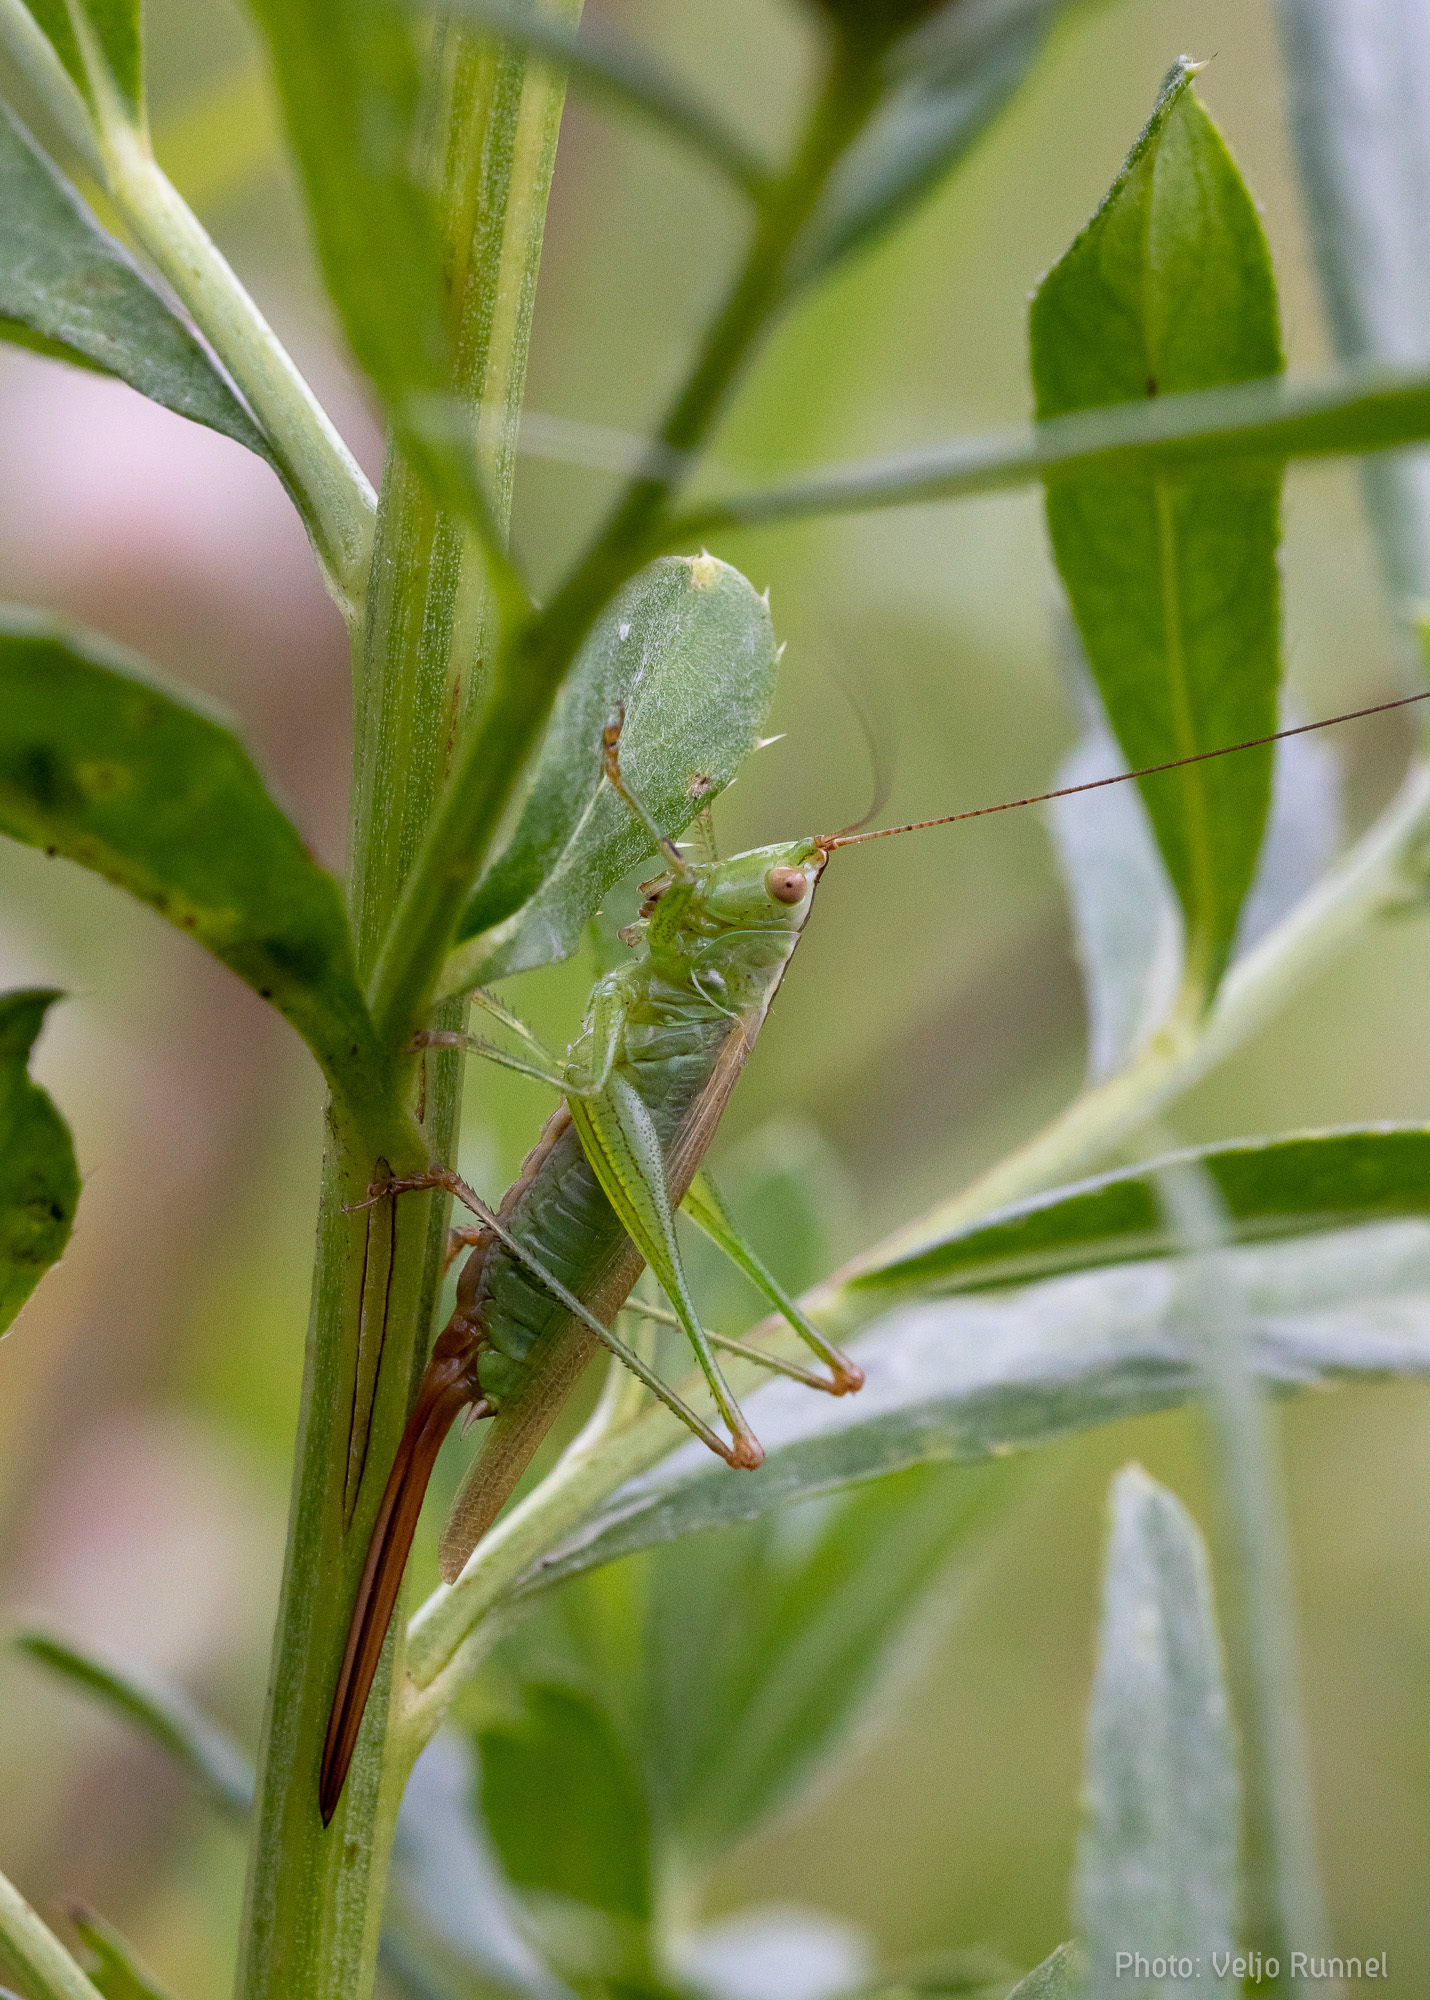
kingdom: Animalia
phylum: Arthropoda
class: Insecta
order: Orthoptera
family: Tettigoniidae
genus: Conocephalus
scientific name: Conocephalus fuscus
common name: Long-winged conehead
